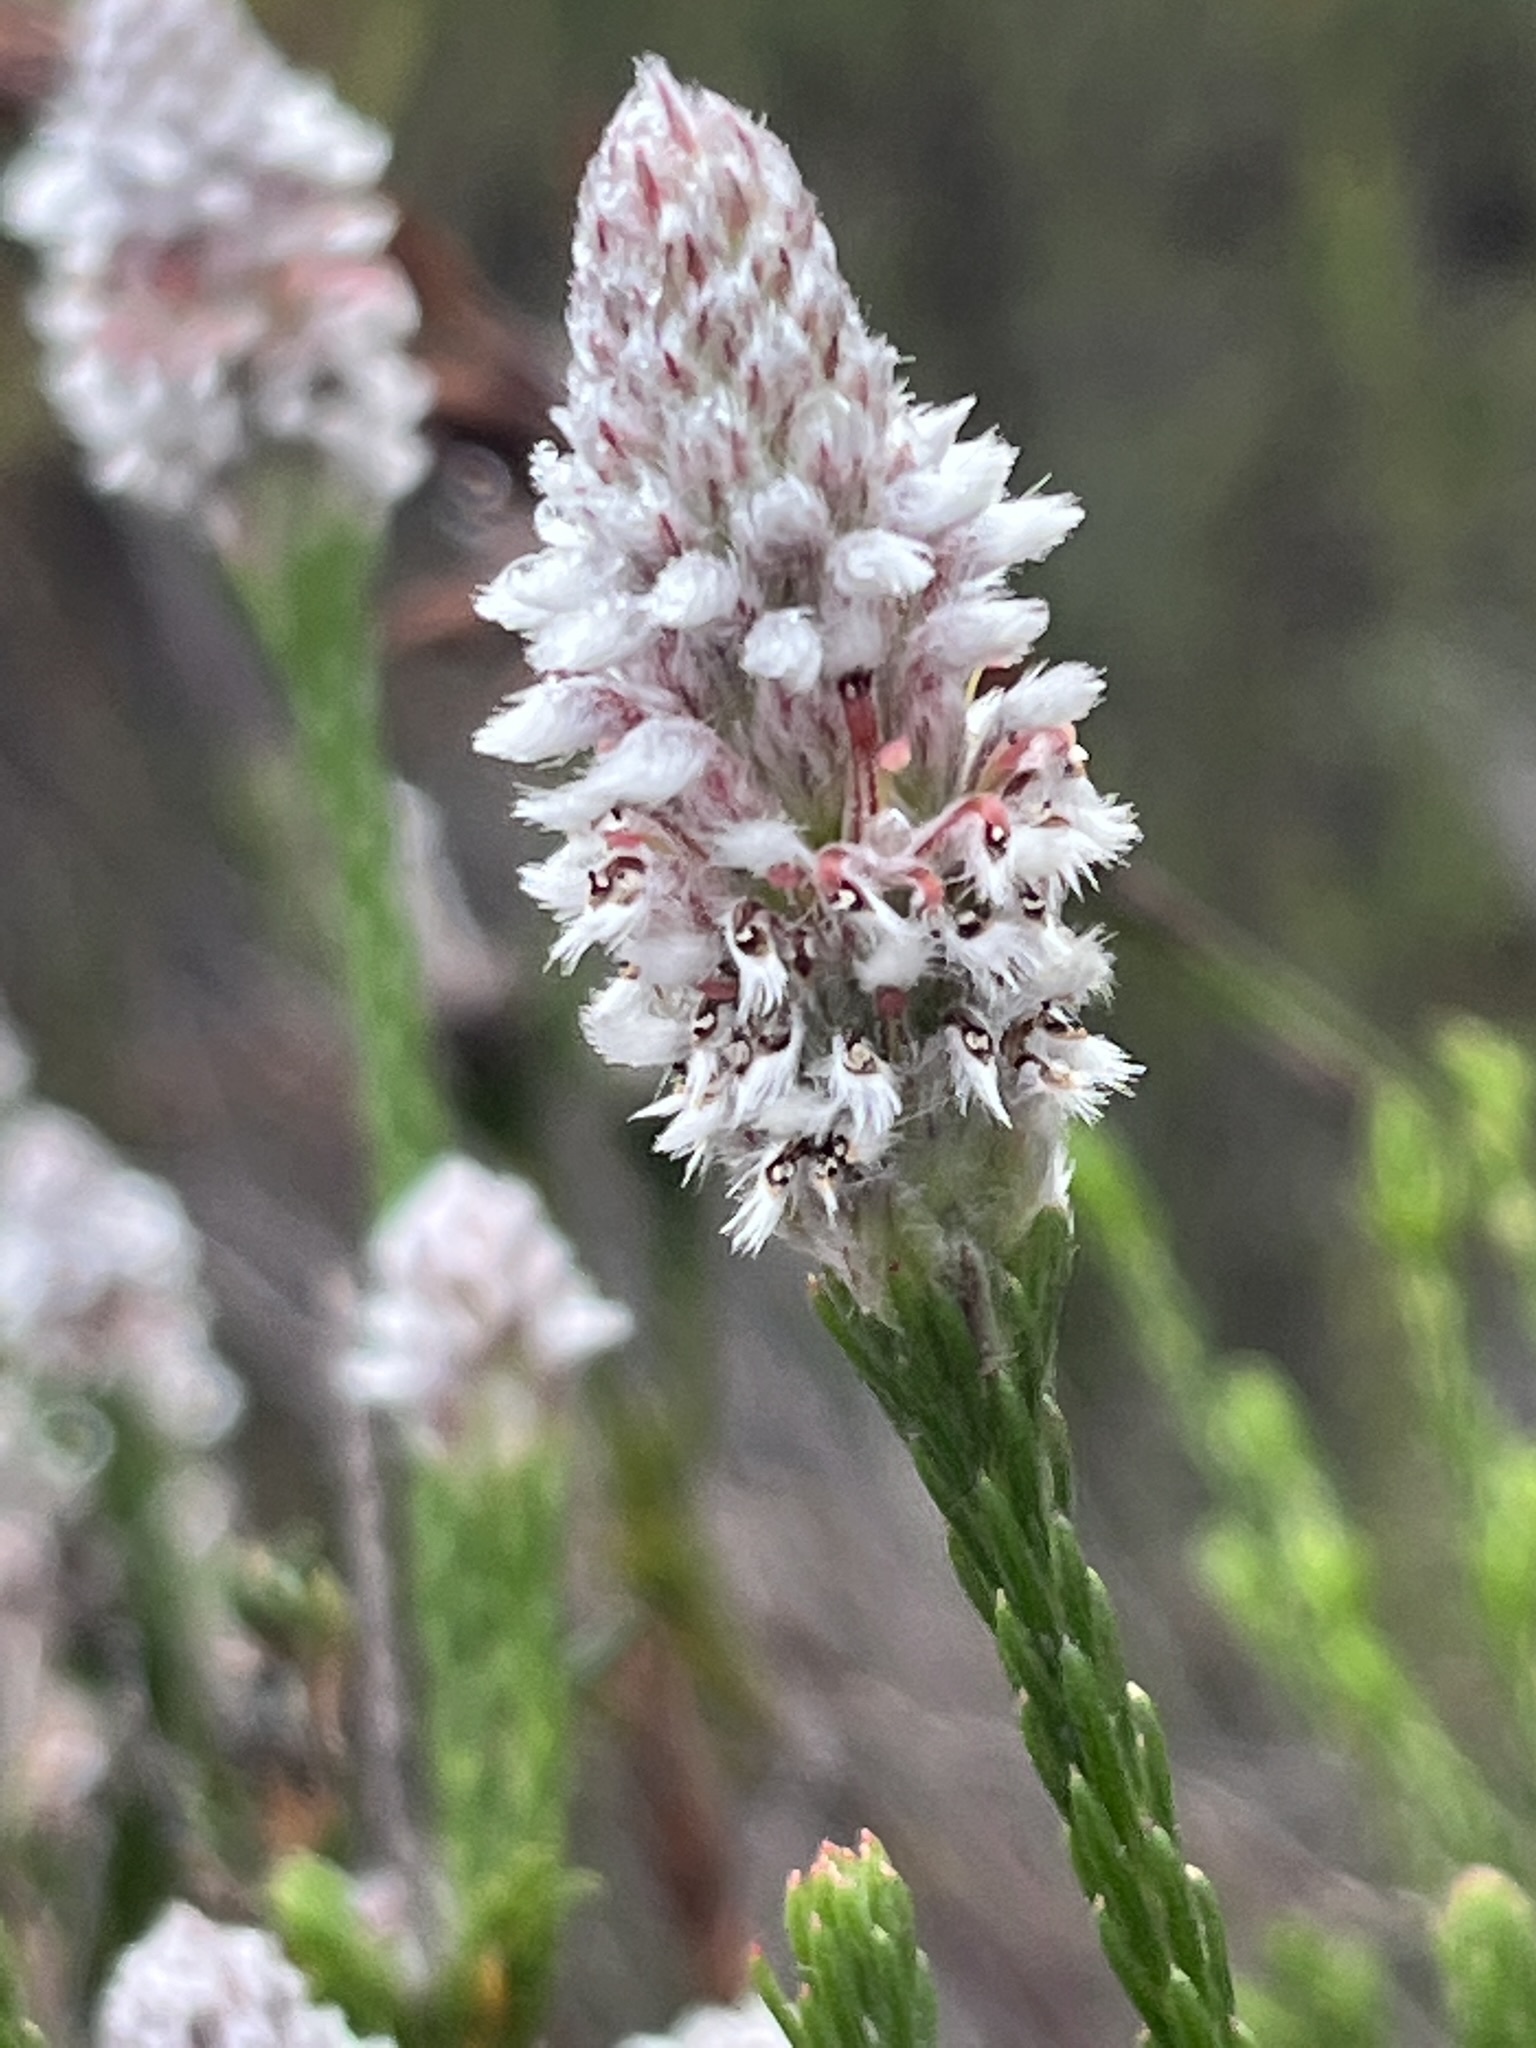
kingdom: Plantae
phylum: Tracheophyta
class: Magnoliopsida
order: Proteales
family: Proteaceae
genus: Spatalla
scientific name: Spatalla ericoides
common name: Erica-leaf spoon
